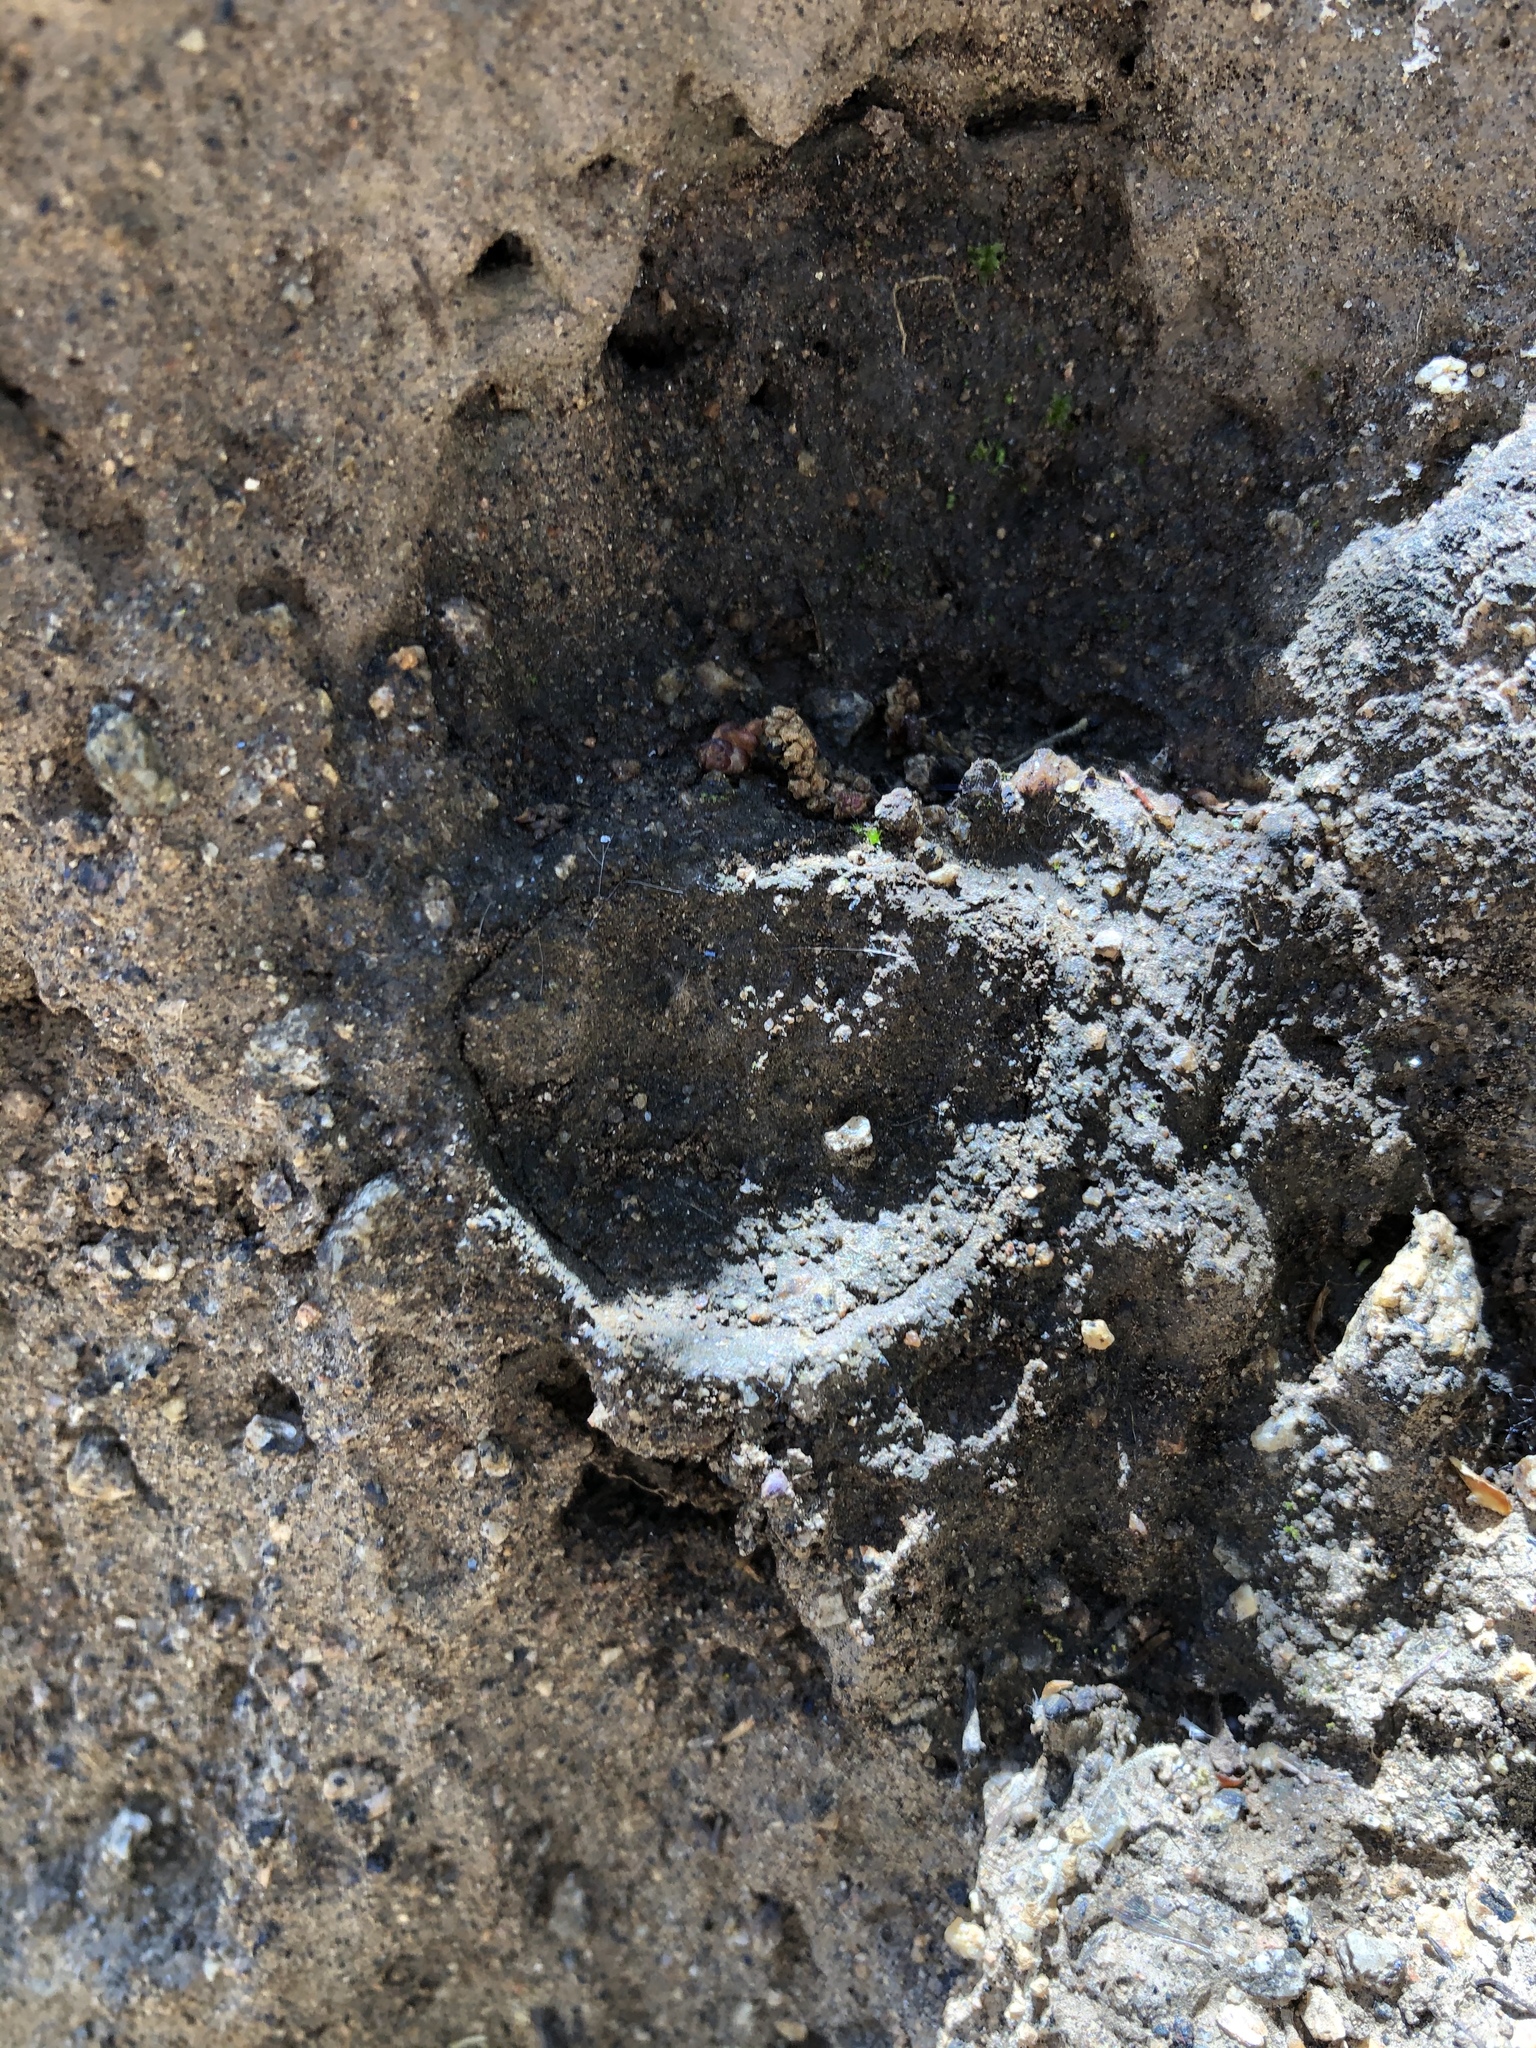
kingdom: Animalia
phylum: Arthropoda
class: Arachnida
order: Araneae
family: Halonoproctidae
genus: Bothriocyrtum
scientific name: Bothriocyrtum californicum
